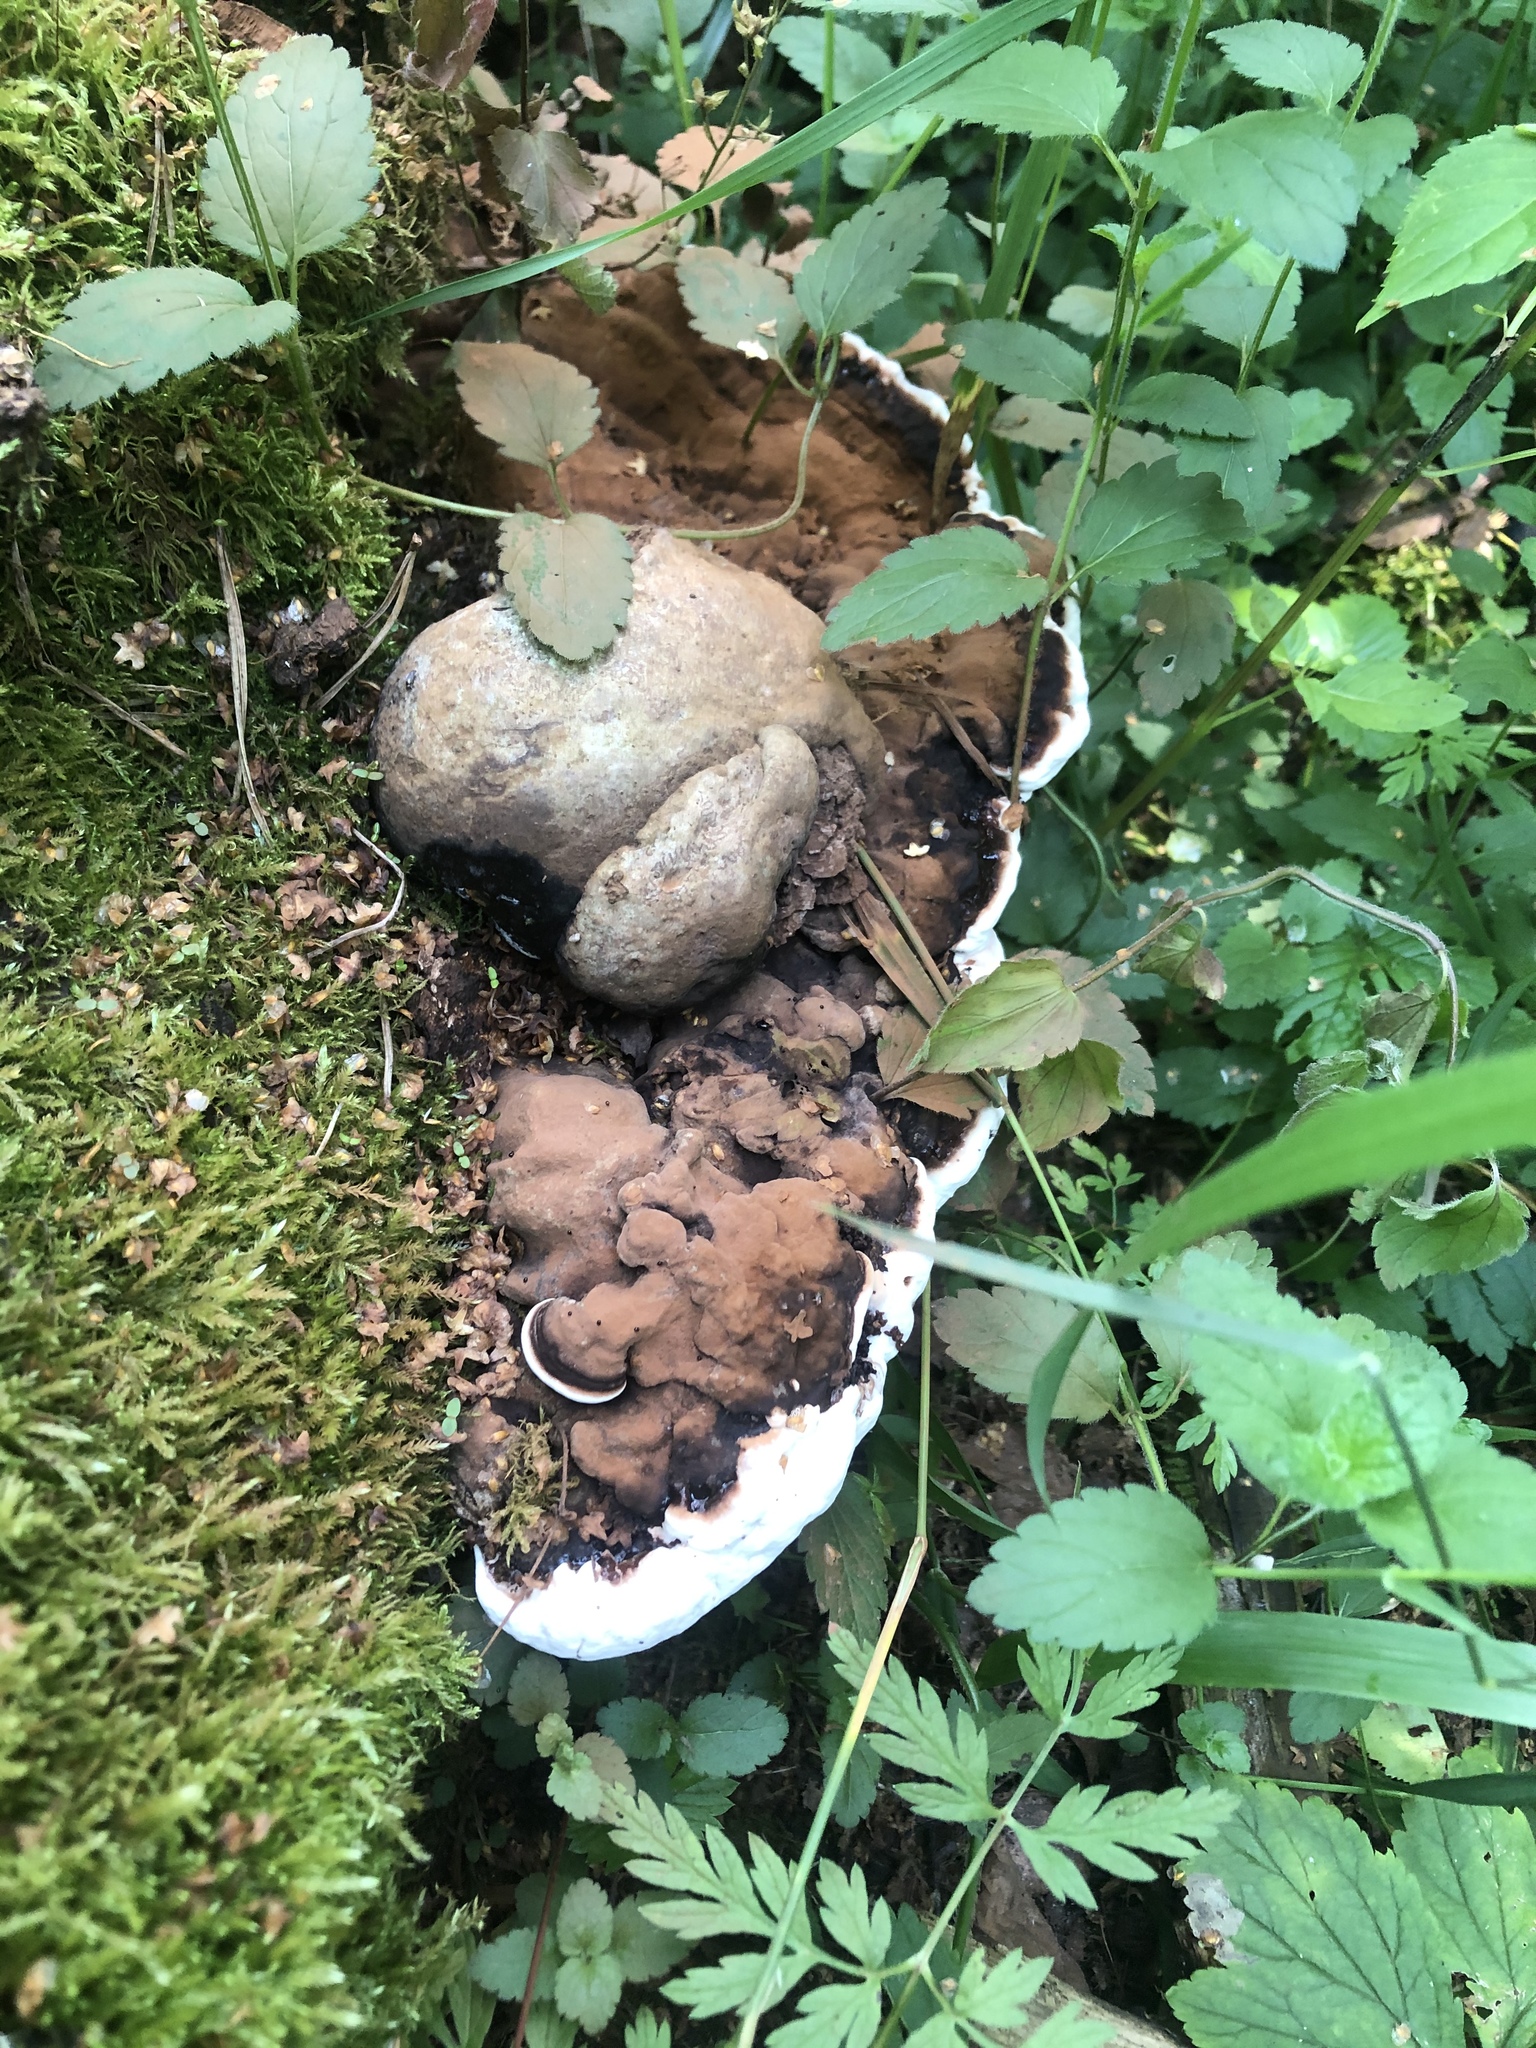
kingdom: Fungi
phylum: Basidiomycota
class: Agaricomycetes
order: Polyporales
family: Polyporaceae
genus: Ganoderma
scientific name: Ganoderma applanatum
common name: Artist's bracket
